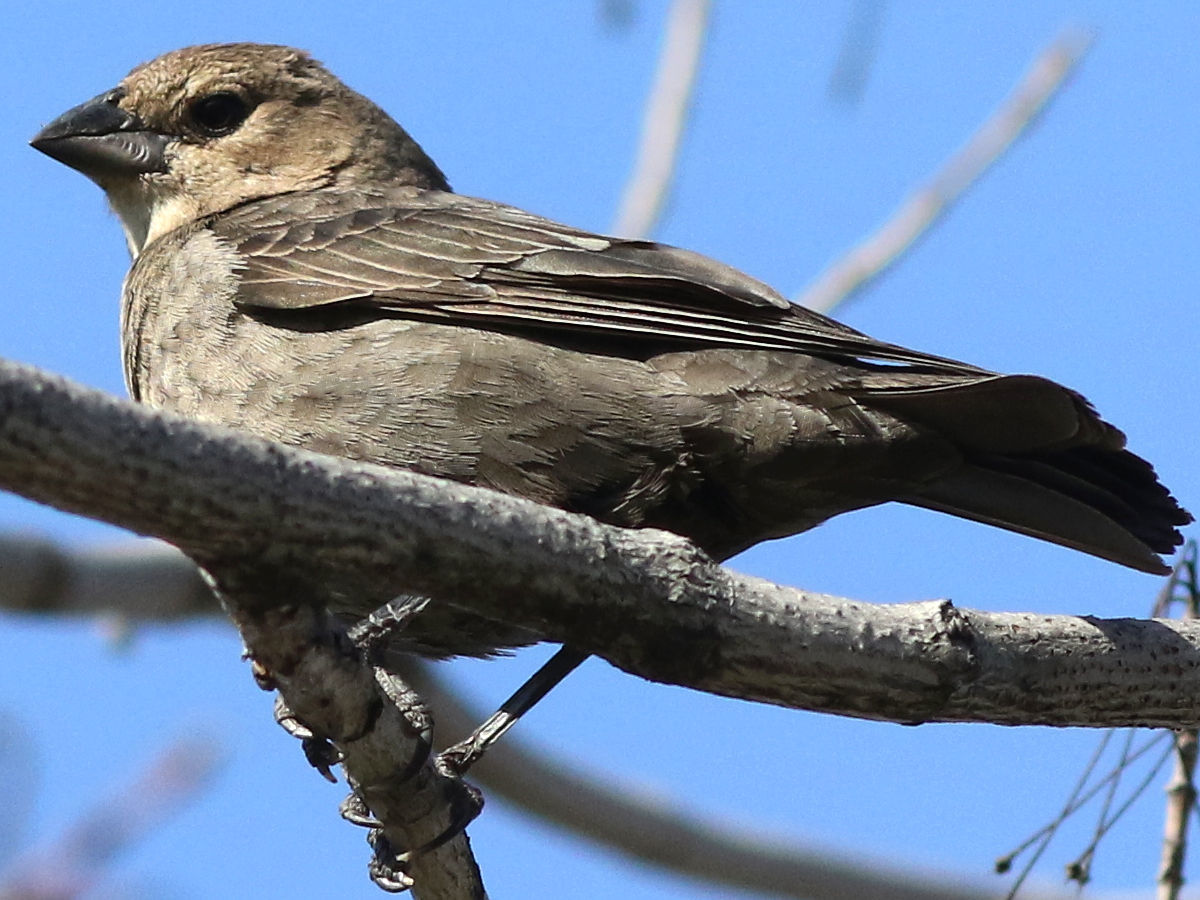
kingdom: Animalia
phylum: Chordata
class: Aves
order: Passeriformes
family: Icteridae
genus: Molothrus
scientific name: Molothrus ater
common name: Brown-headed cowbird
